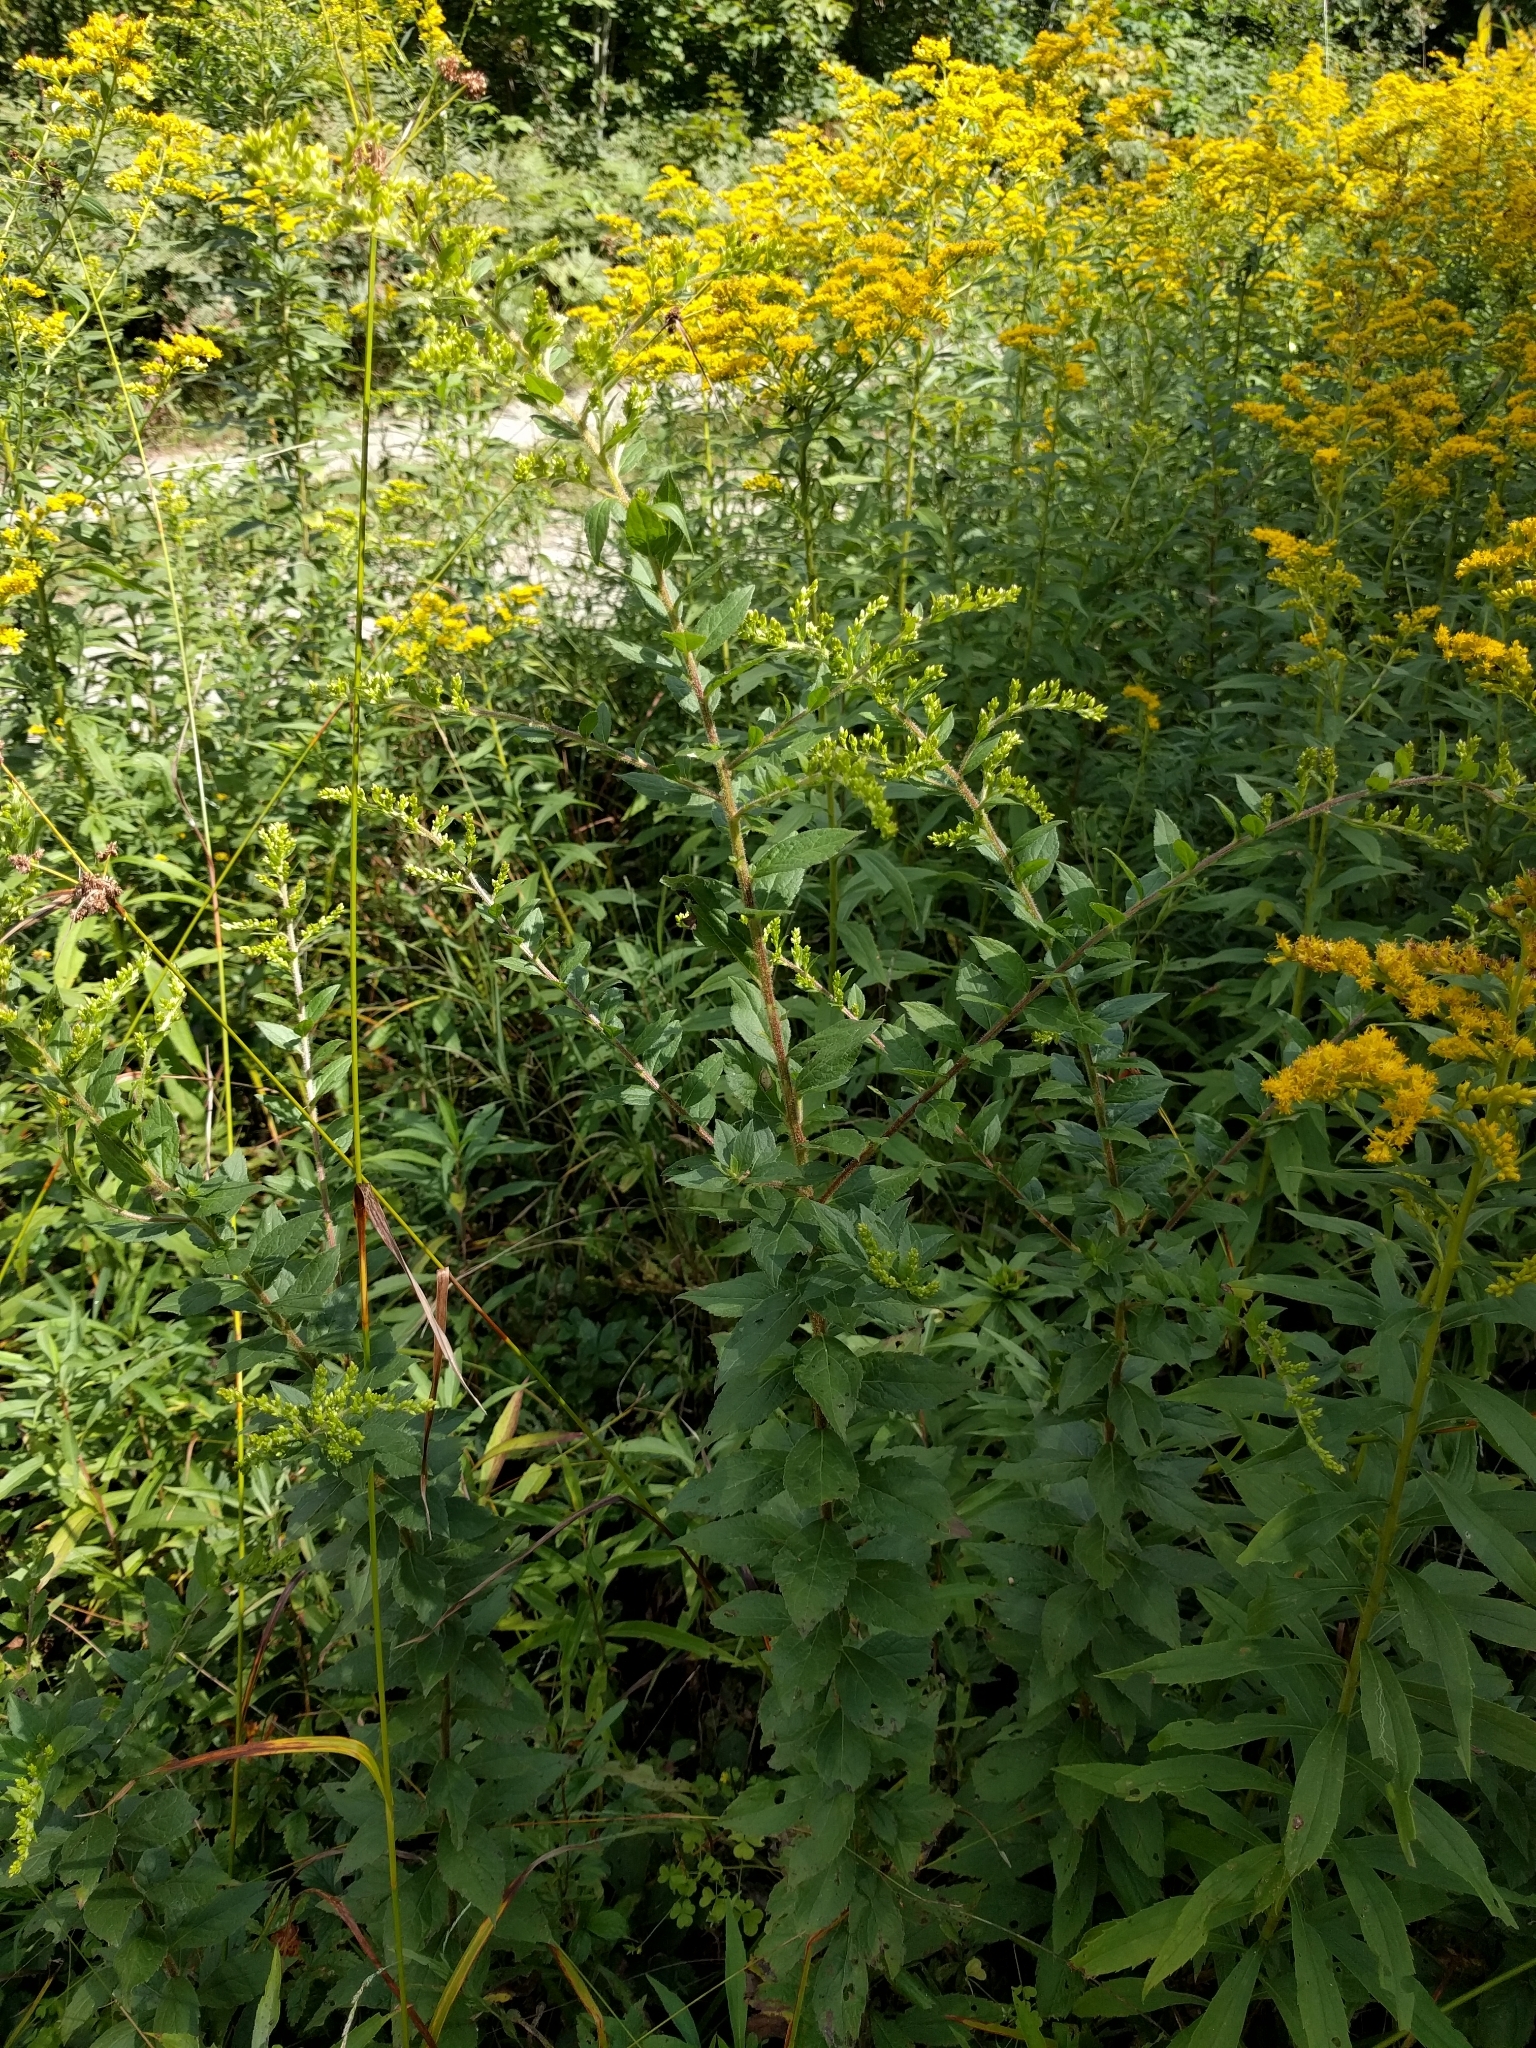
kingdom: Plantae
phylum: Tracheophyta
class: Magnoliopsida
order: Asterales
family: Asteraceae
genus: Solidago
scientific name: Solidago rugosa
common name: Rough-stemmed goldenrod
